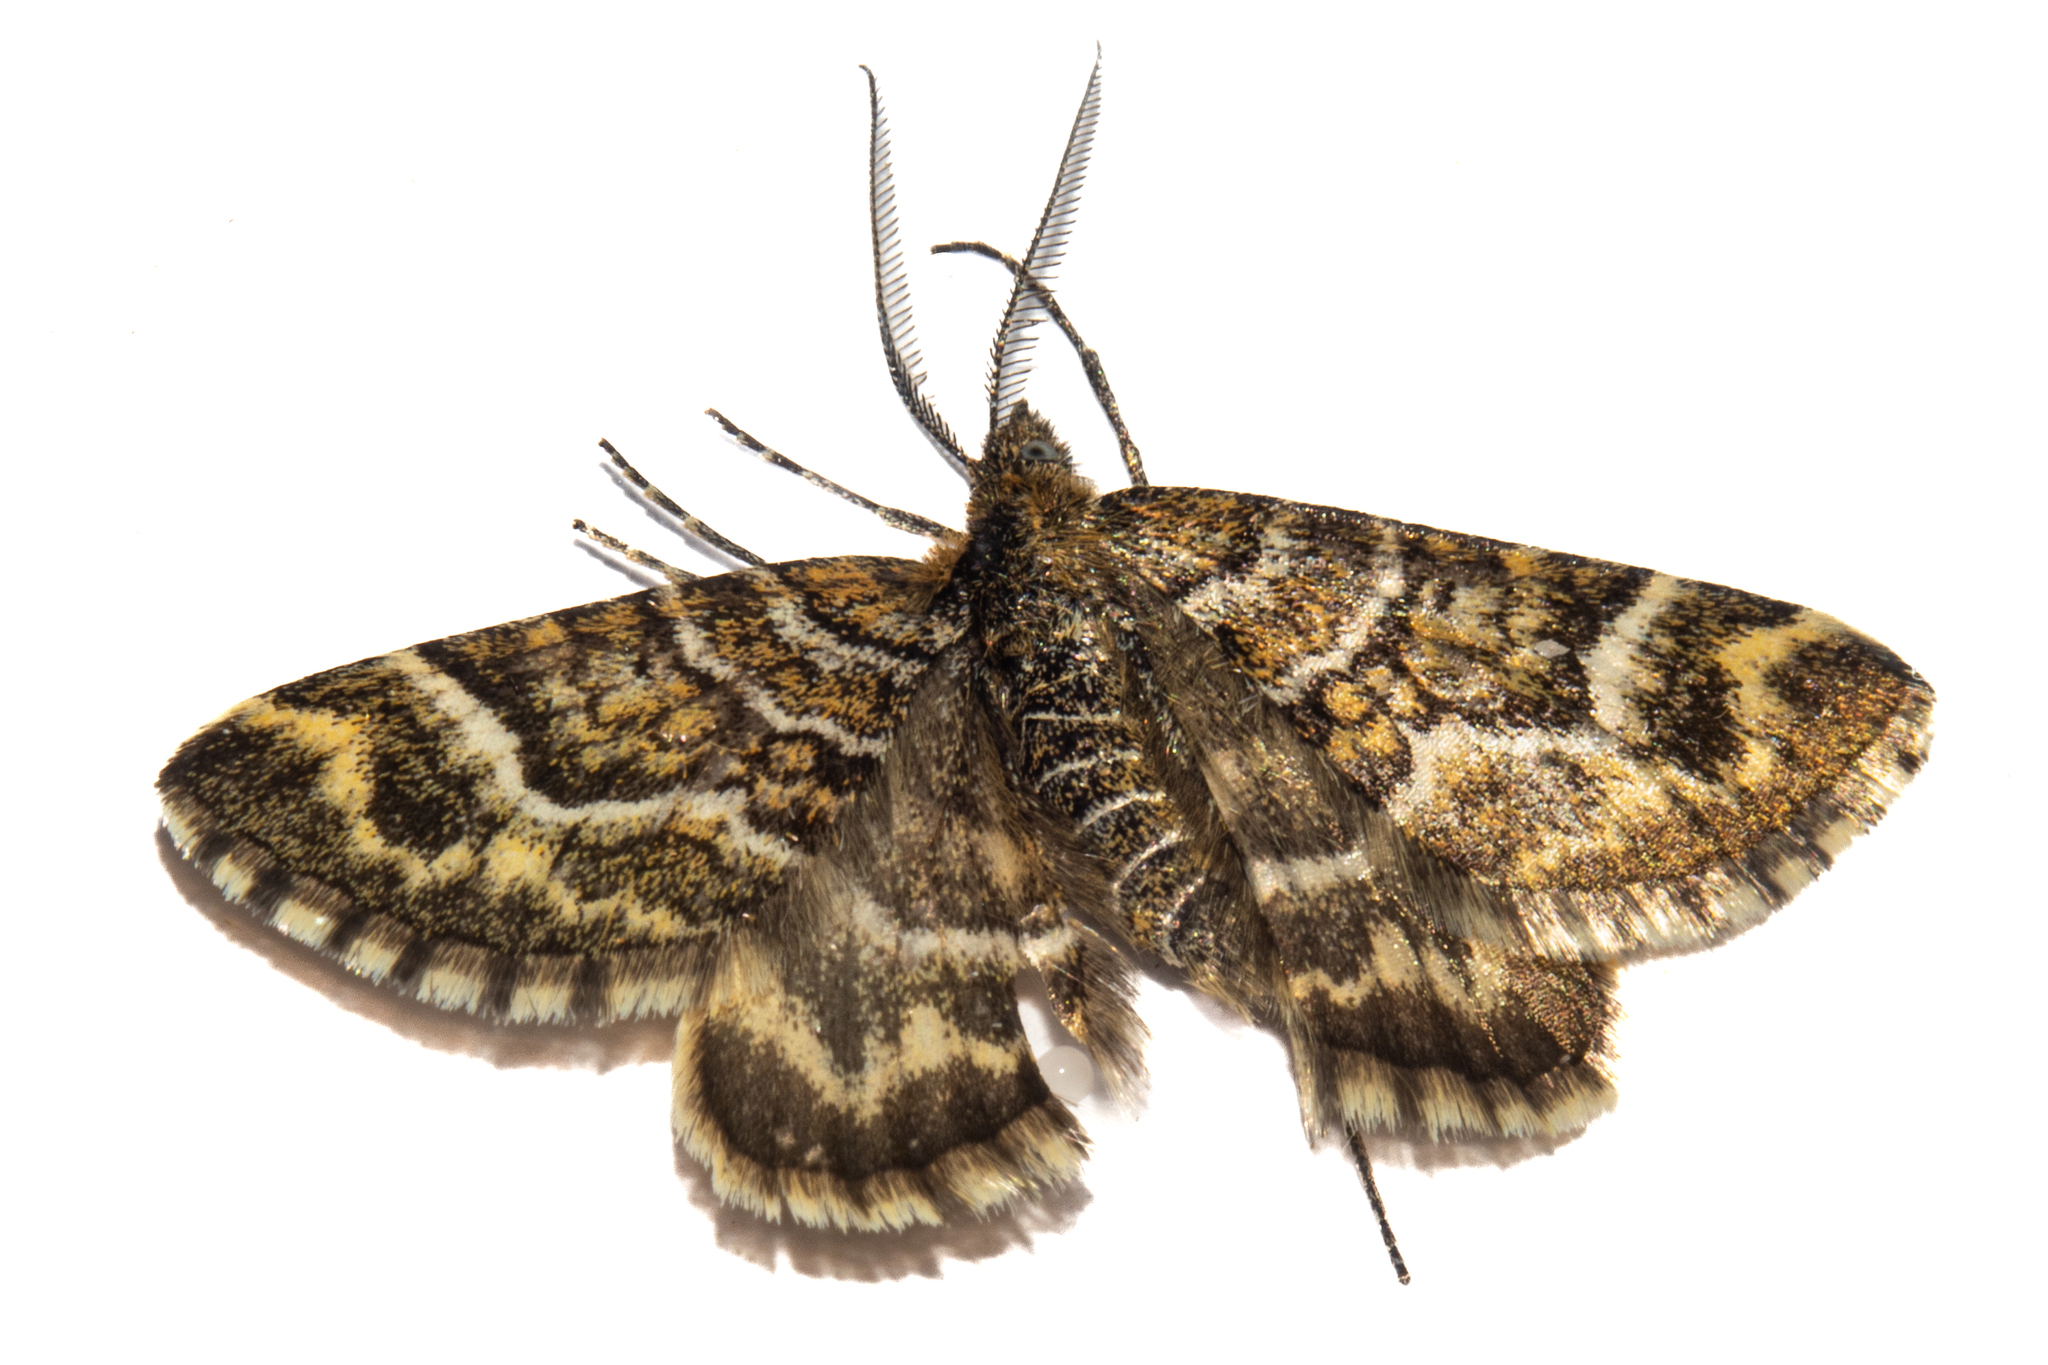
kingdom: Animalia
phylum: Arthropoda
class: Insecta
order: Lepidoptera
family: Geometridae
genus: Notoreas
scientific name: Notoreas paradelpha
